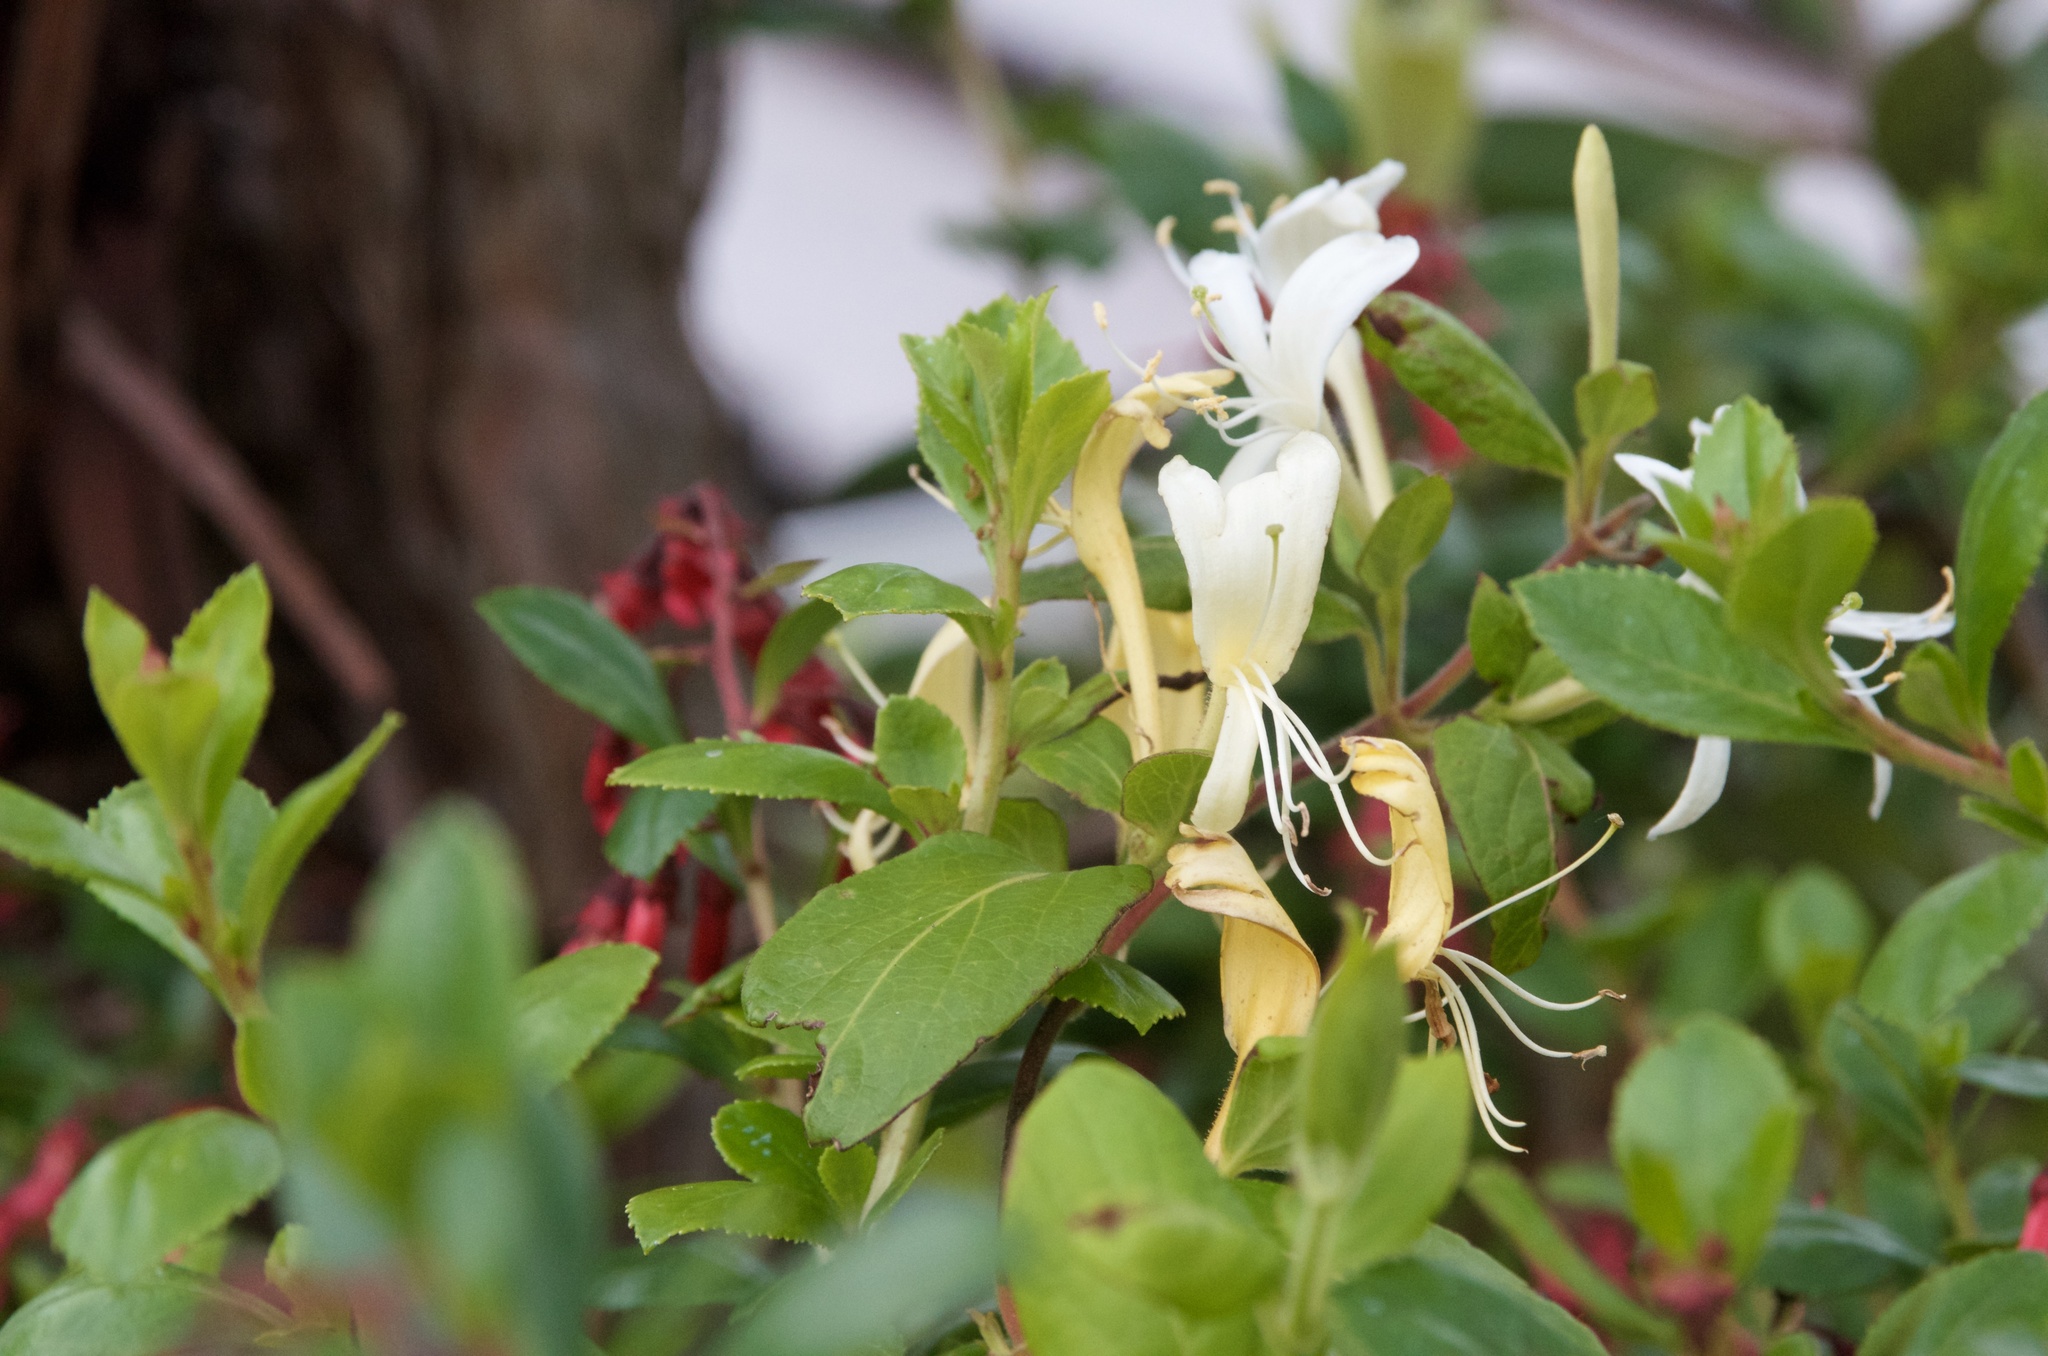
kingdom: Plantae
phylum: Tracheophyta
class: Magnoliopsida
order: Dipsacales
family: Caprifoliaceae
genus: Lonicera
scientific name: Lonicera japonica
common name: Japanese honeysuckle
